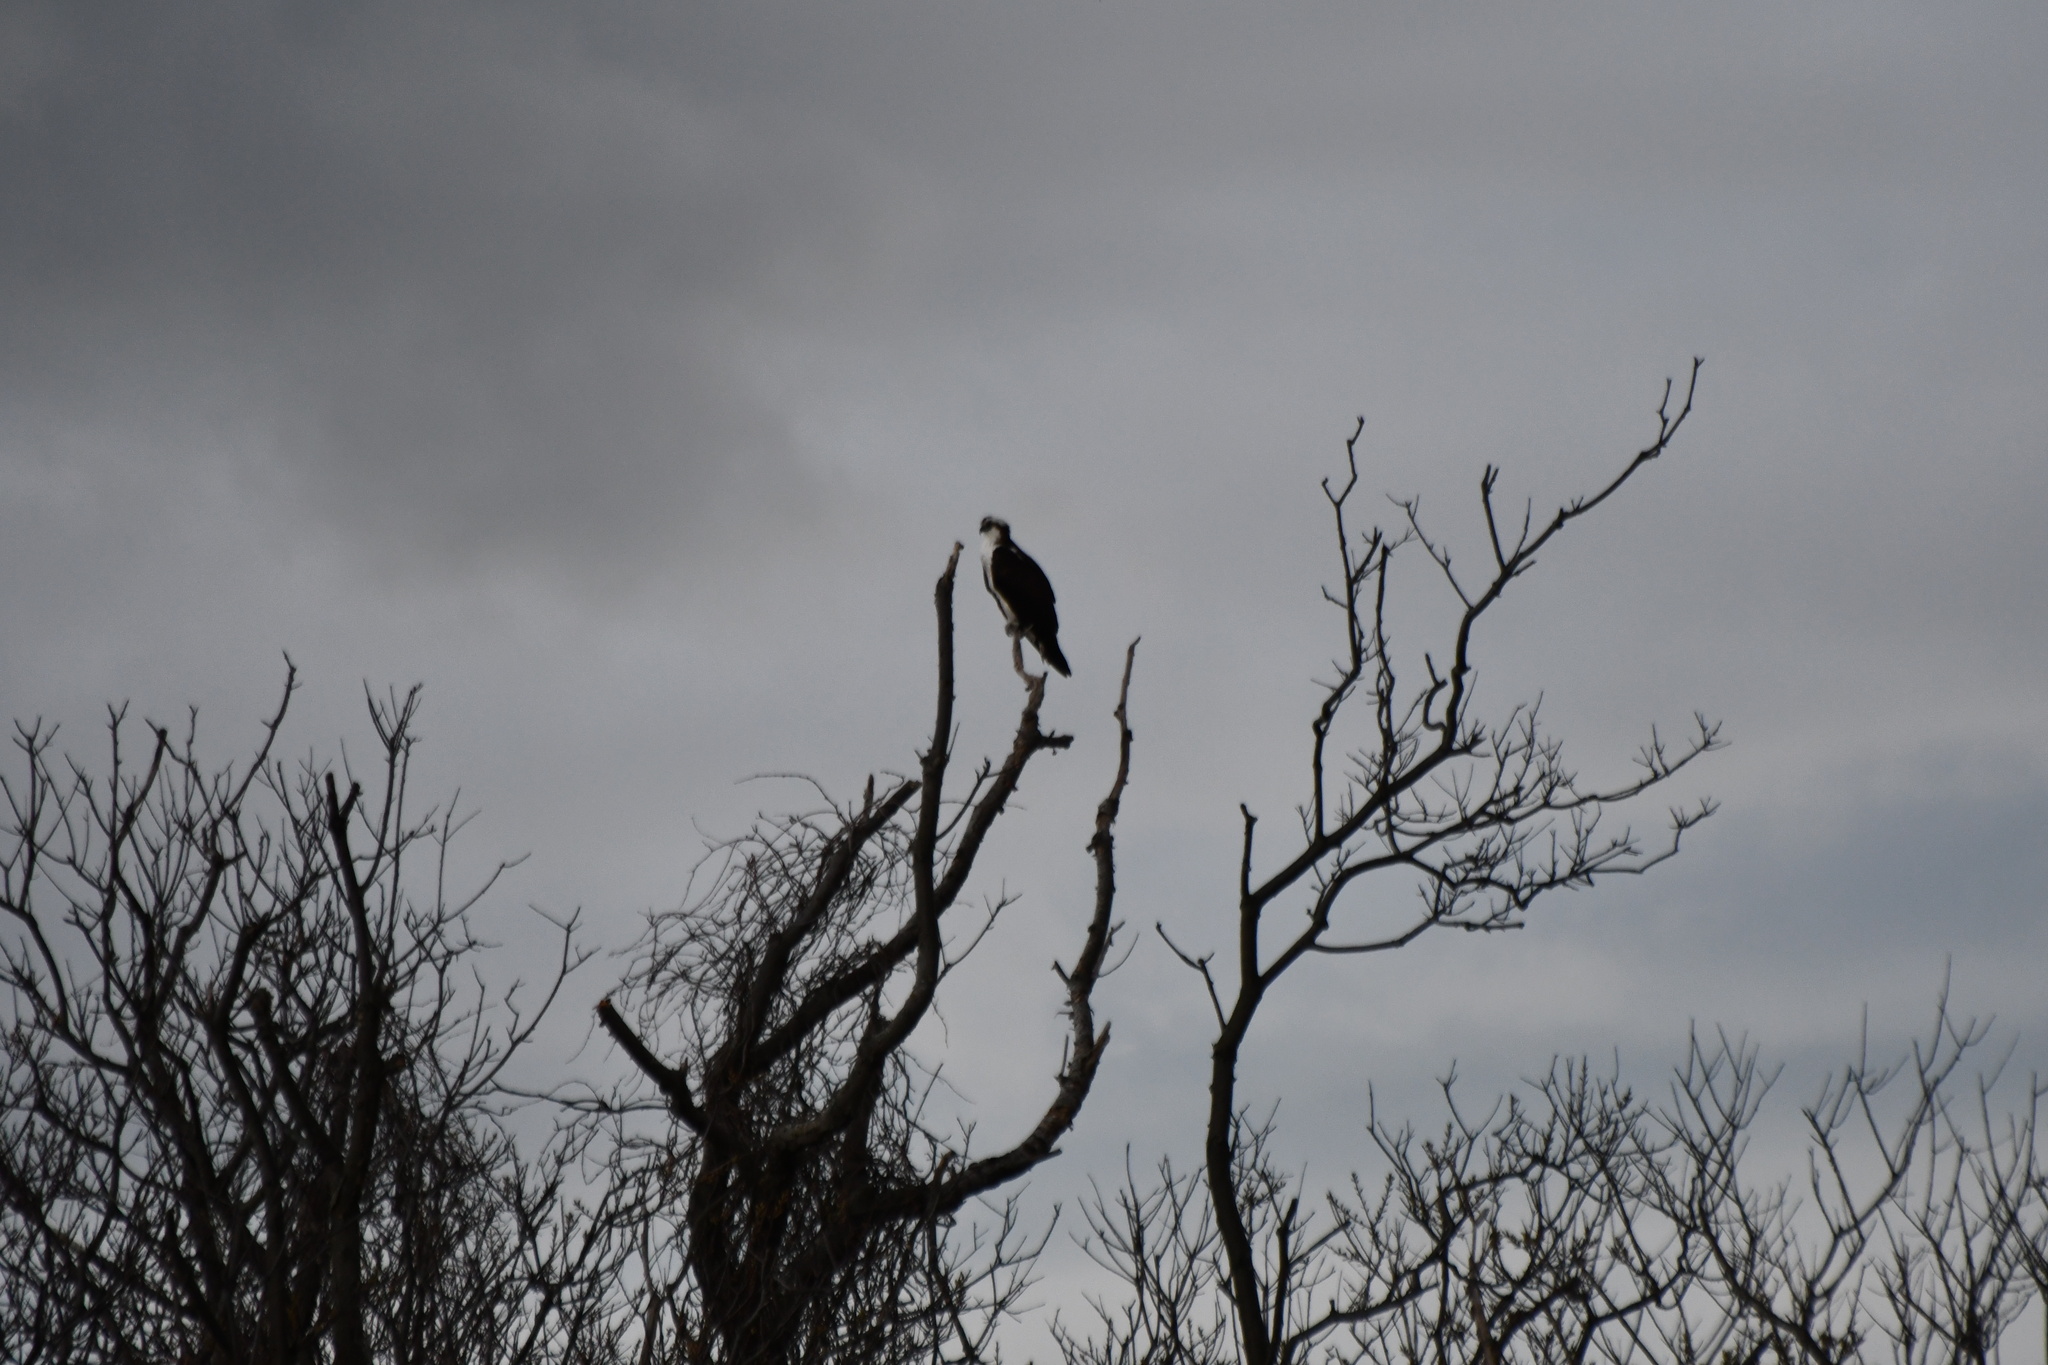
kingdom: Animalia
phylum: Chordata
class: Aves
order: Accipitriformes
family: Pandionidae
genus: Pandion
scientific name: Pandion haliaetus
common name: Osprey
